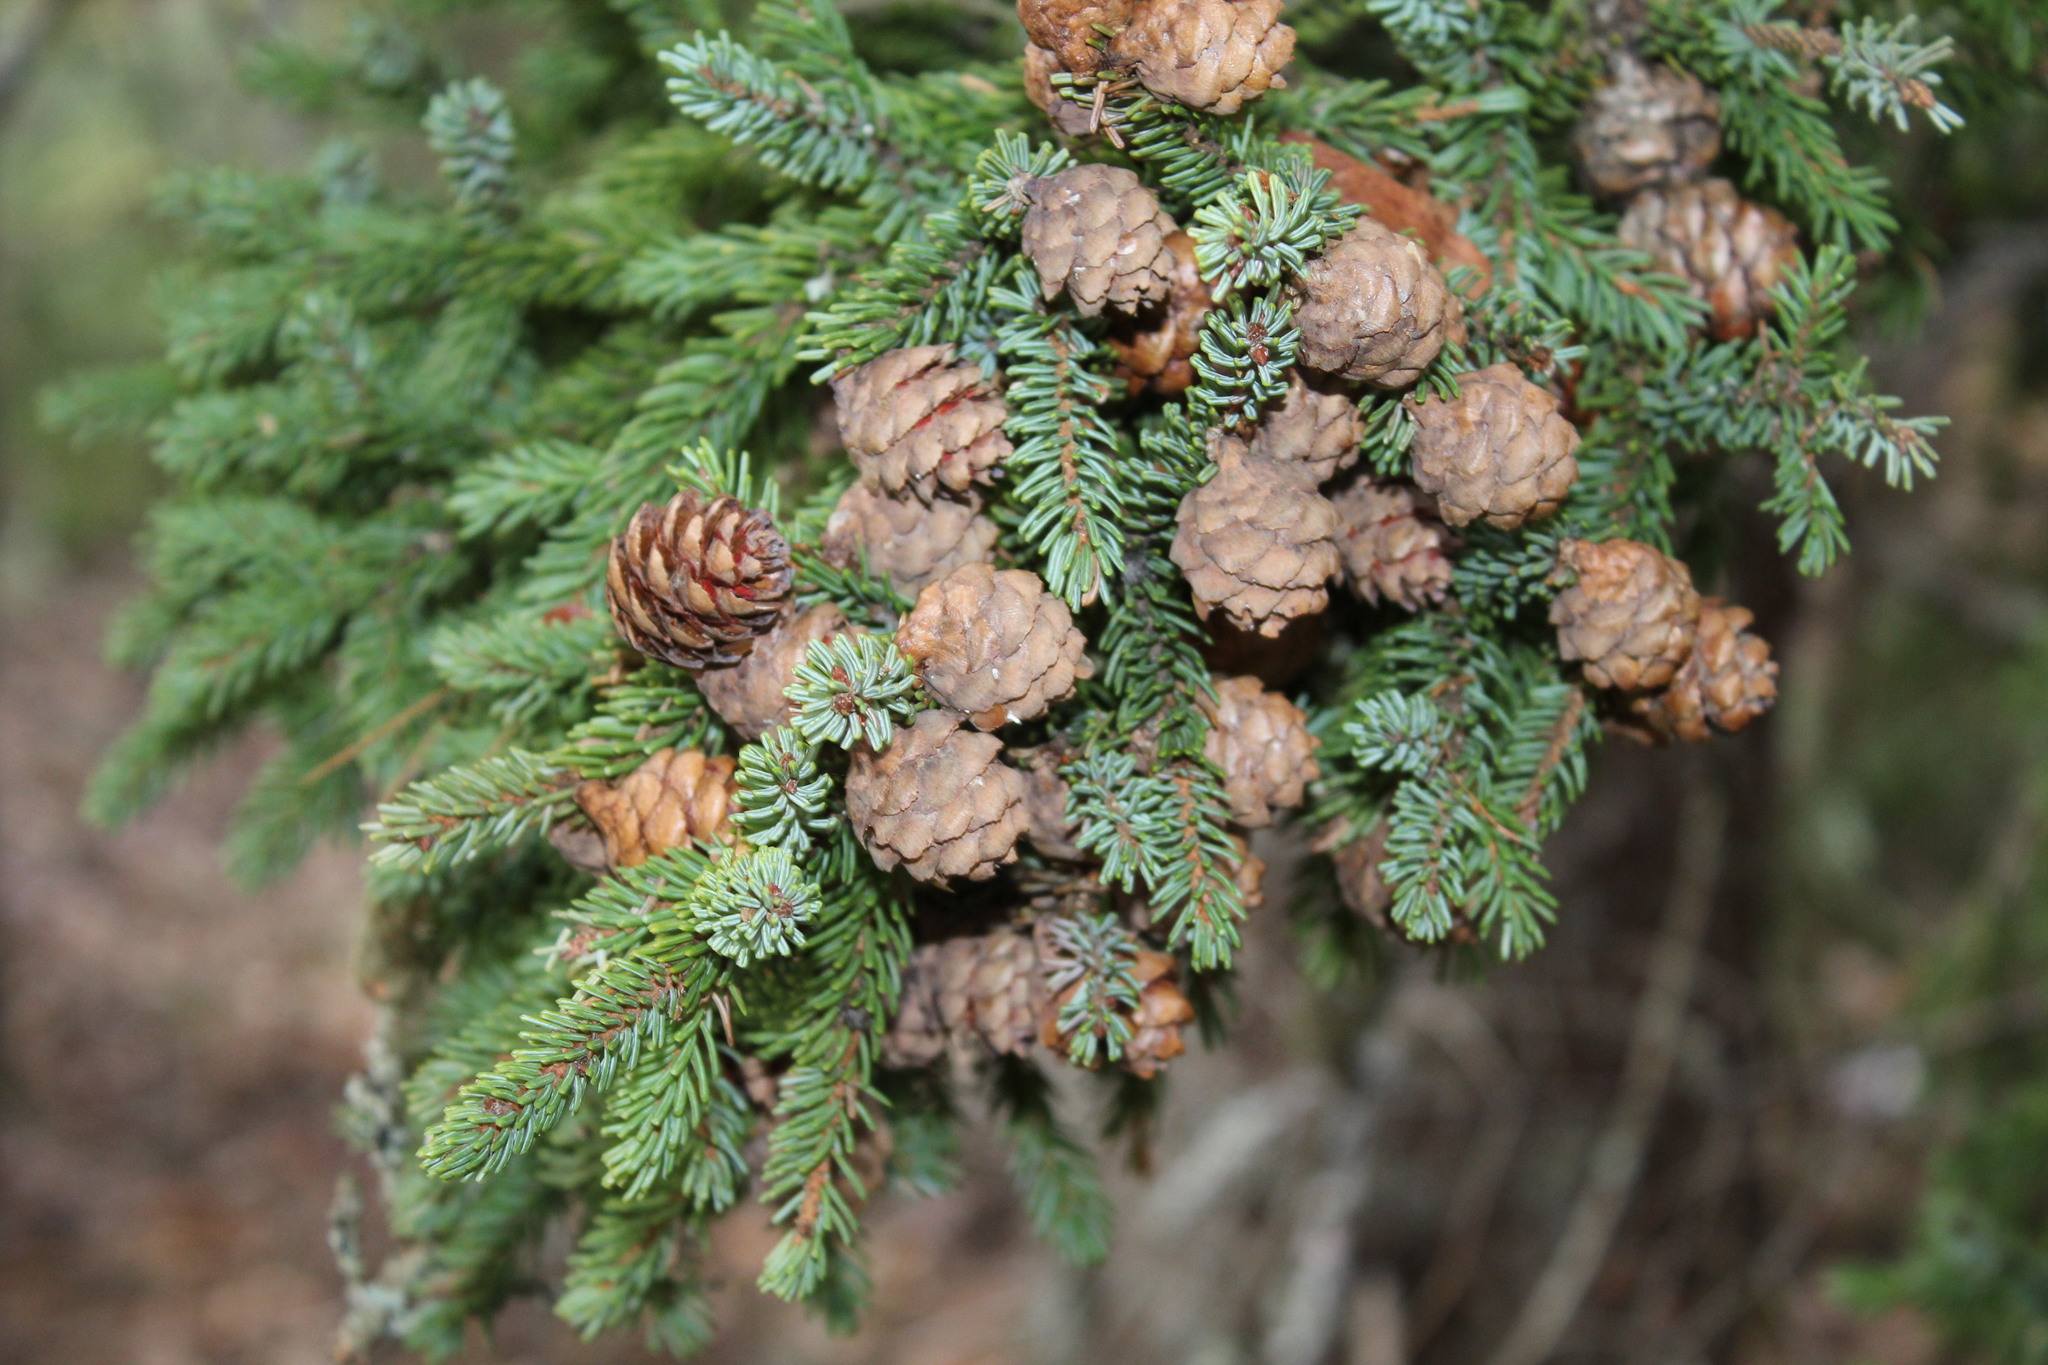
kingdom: Plantae
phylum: Tracheophyta
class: Pinopsida
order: Pinales
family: Pinaceae
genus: Picea
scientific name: Picea mariana
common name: Black spruce
